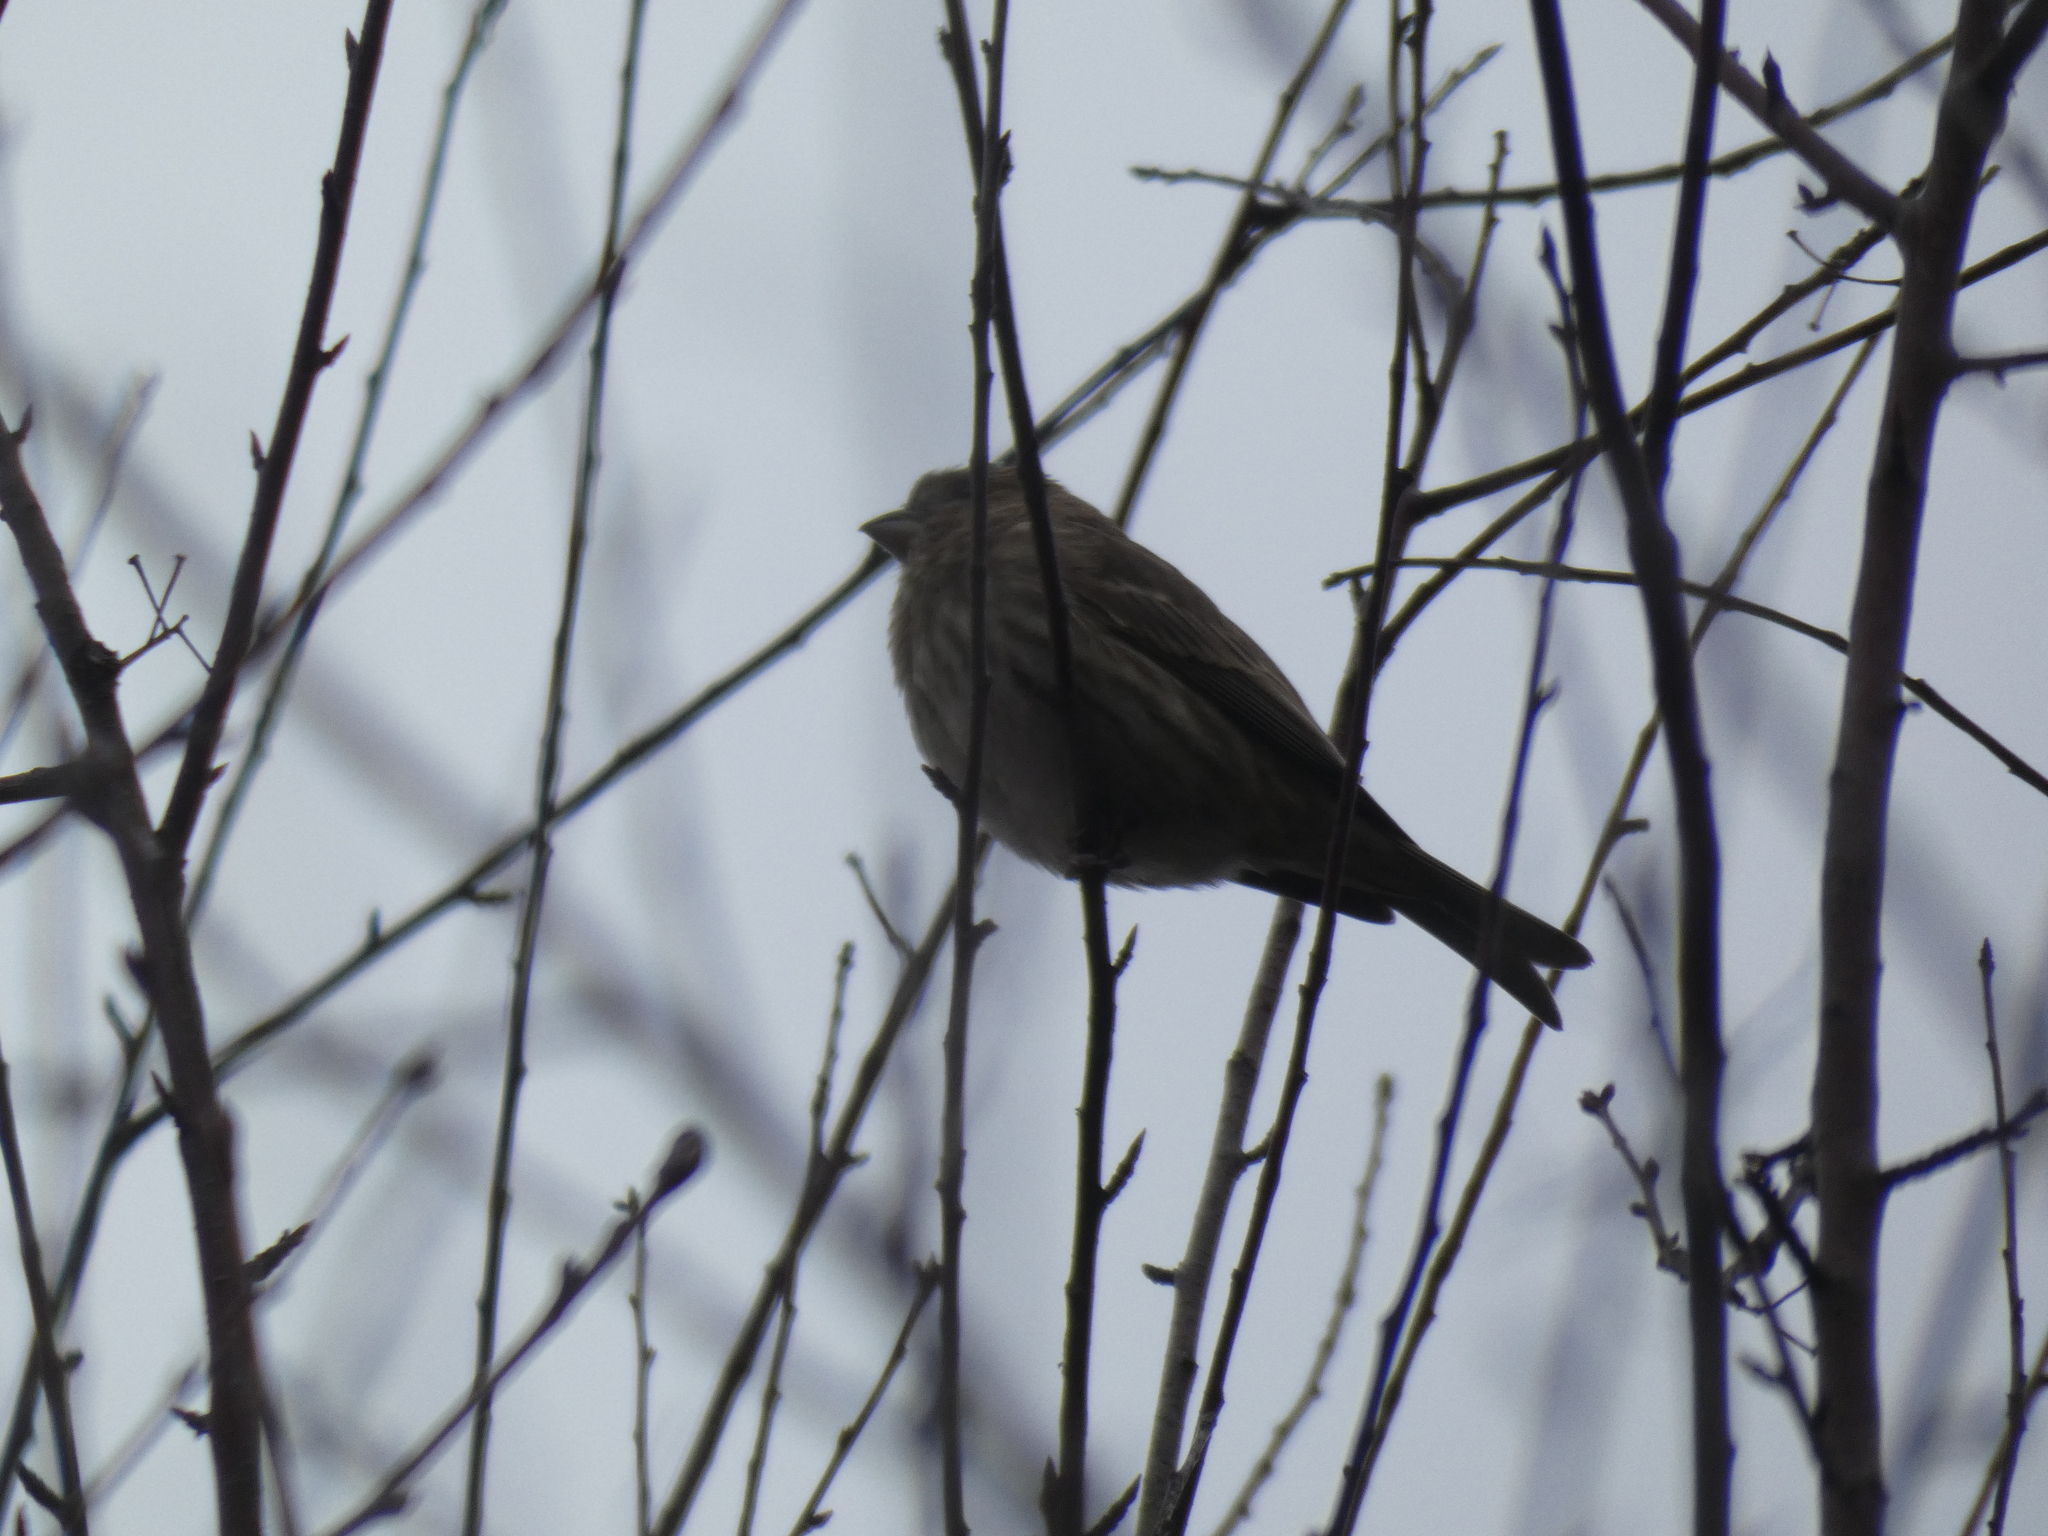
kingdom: Animalia
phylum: Chordata
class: Aves
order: Passeriformes
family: Fringillidae
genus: Haemorhous
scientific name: Haemorhous mexicanus
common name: House finch
